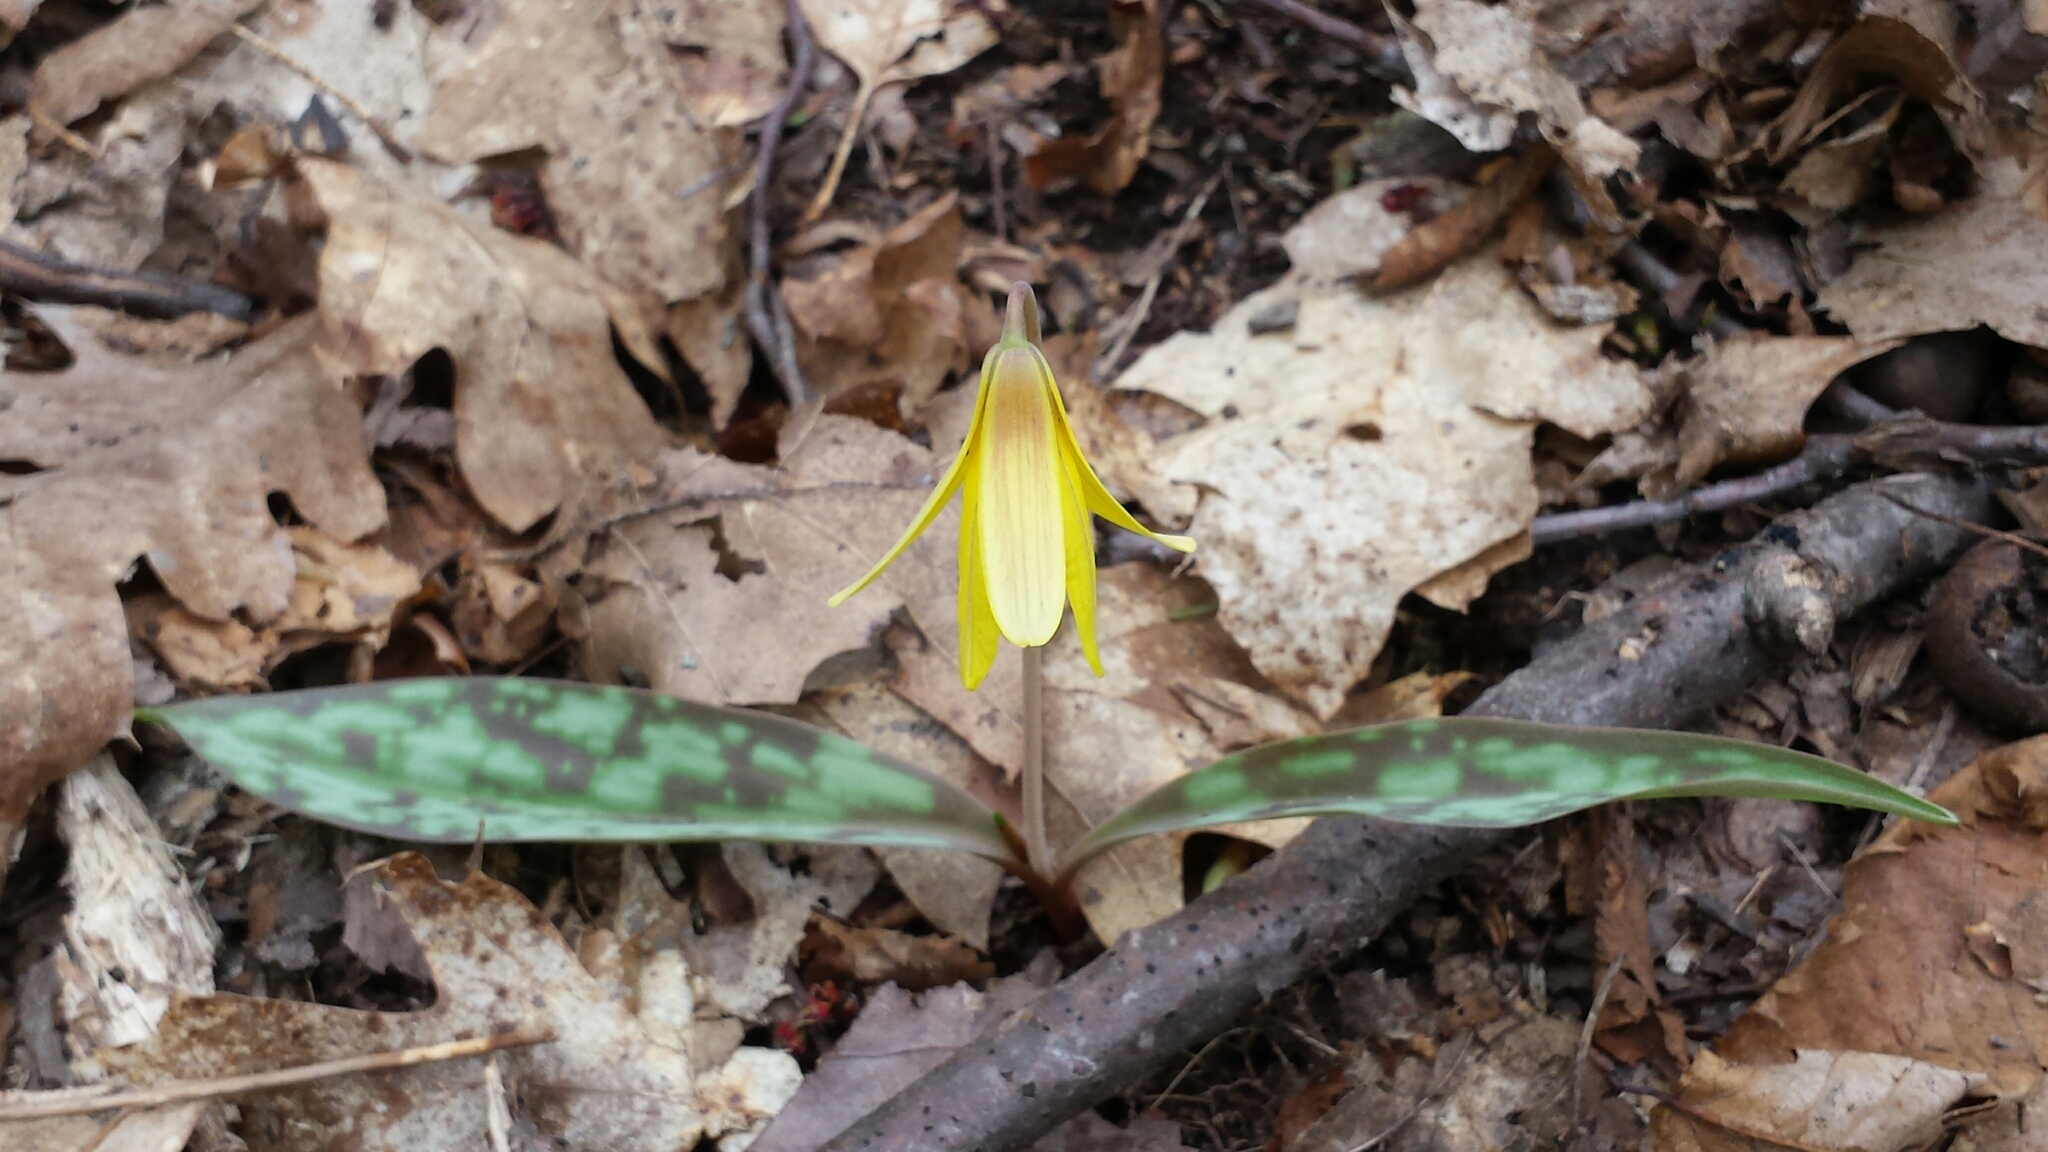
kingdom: Plantae
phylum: Tracheophyta
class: Liliopsida
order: Liliales
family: Liliaceae
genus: Erythronium
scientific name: Erythronium americanum
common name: Yellow adder's-tongue
